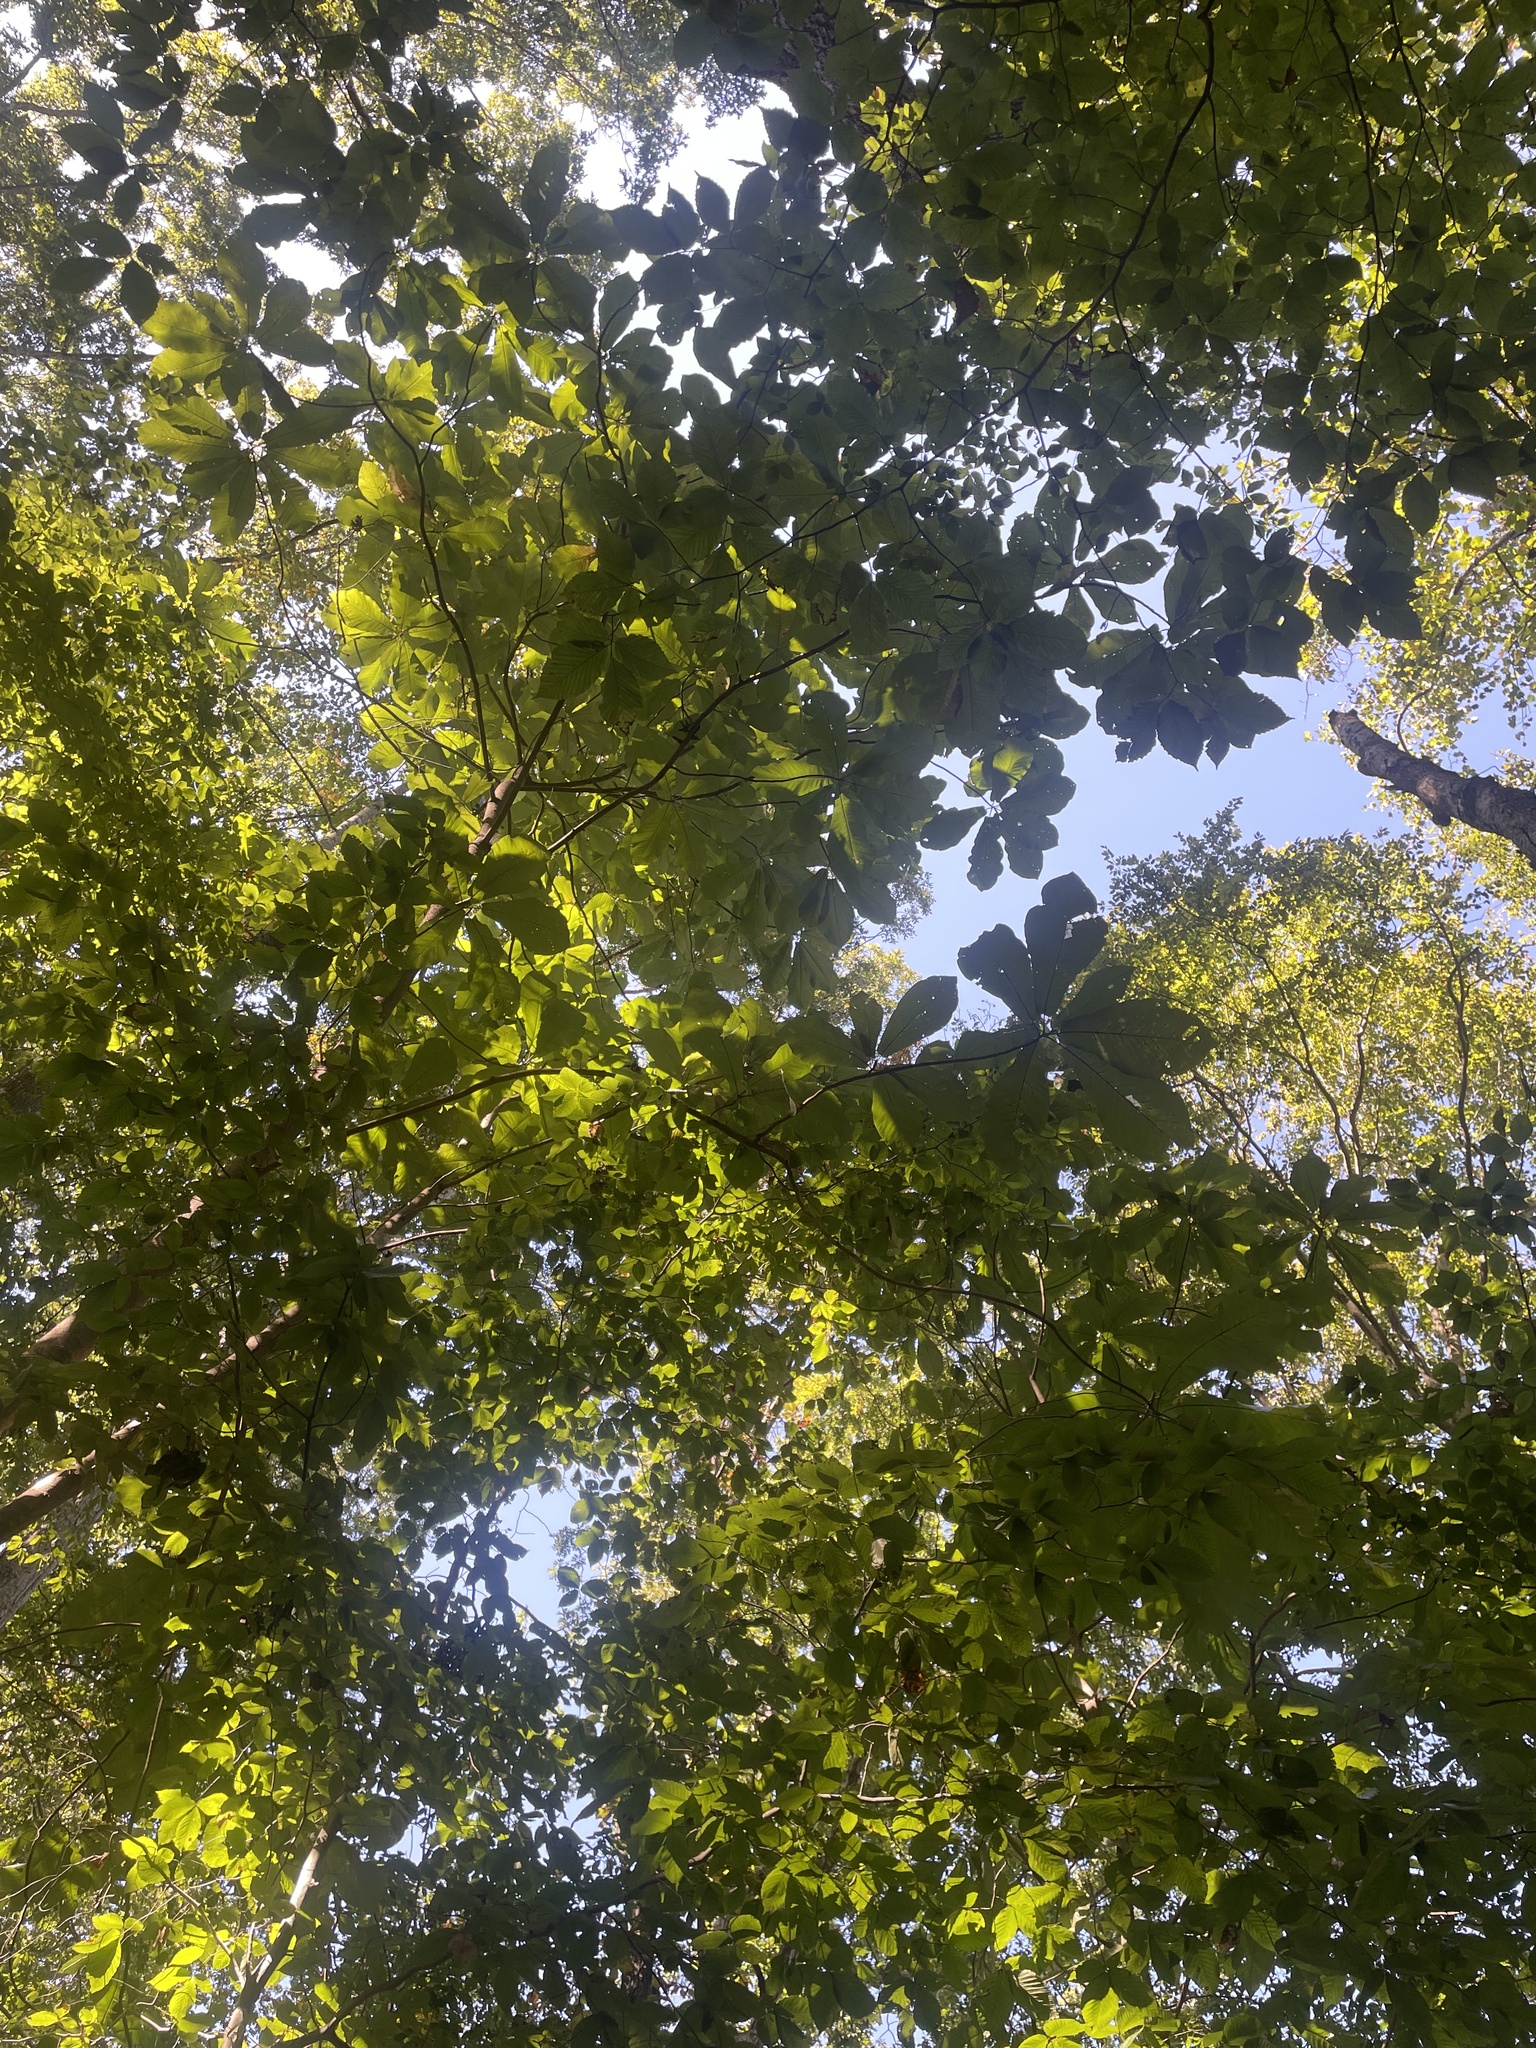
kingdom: Plantae
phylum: Tracheophyta
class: Magnoliopsida
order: Magnoliales
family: Magnoliaceae
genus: Magnolia
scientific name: Magnolia macrophylla
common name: Big-leaf magnolia
